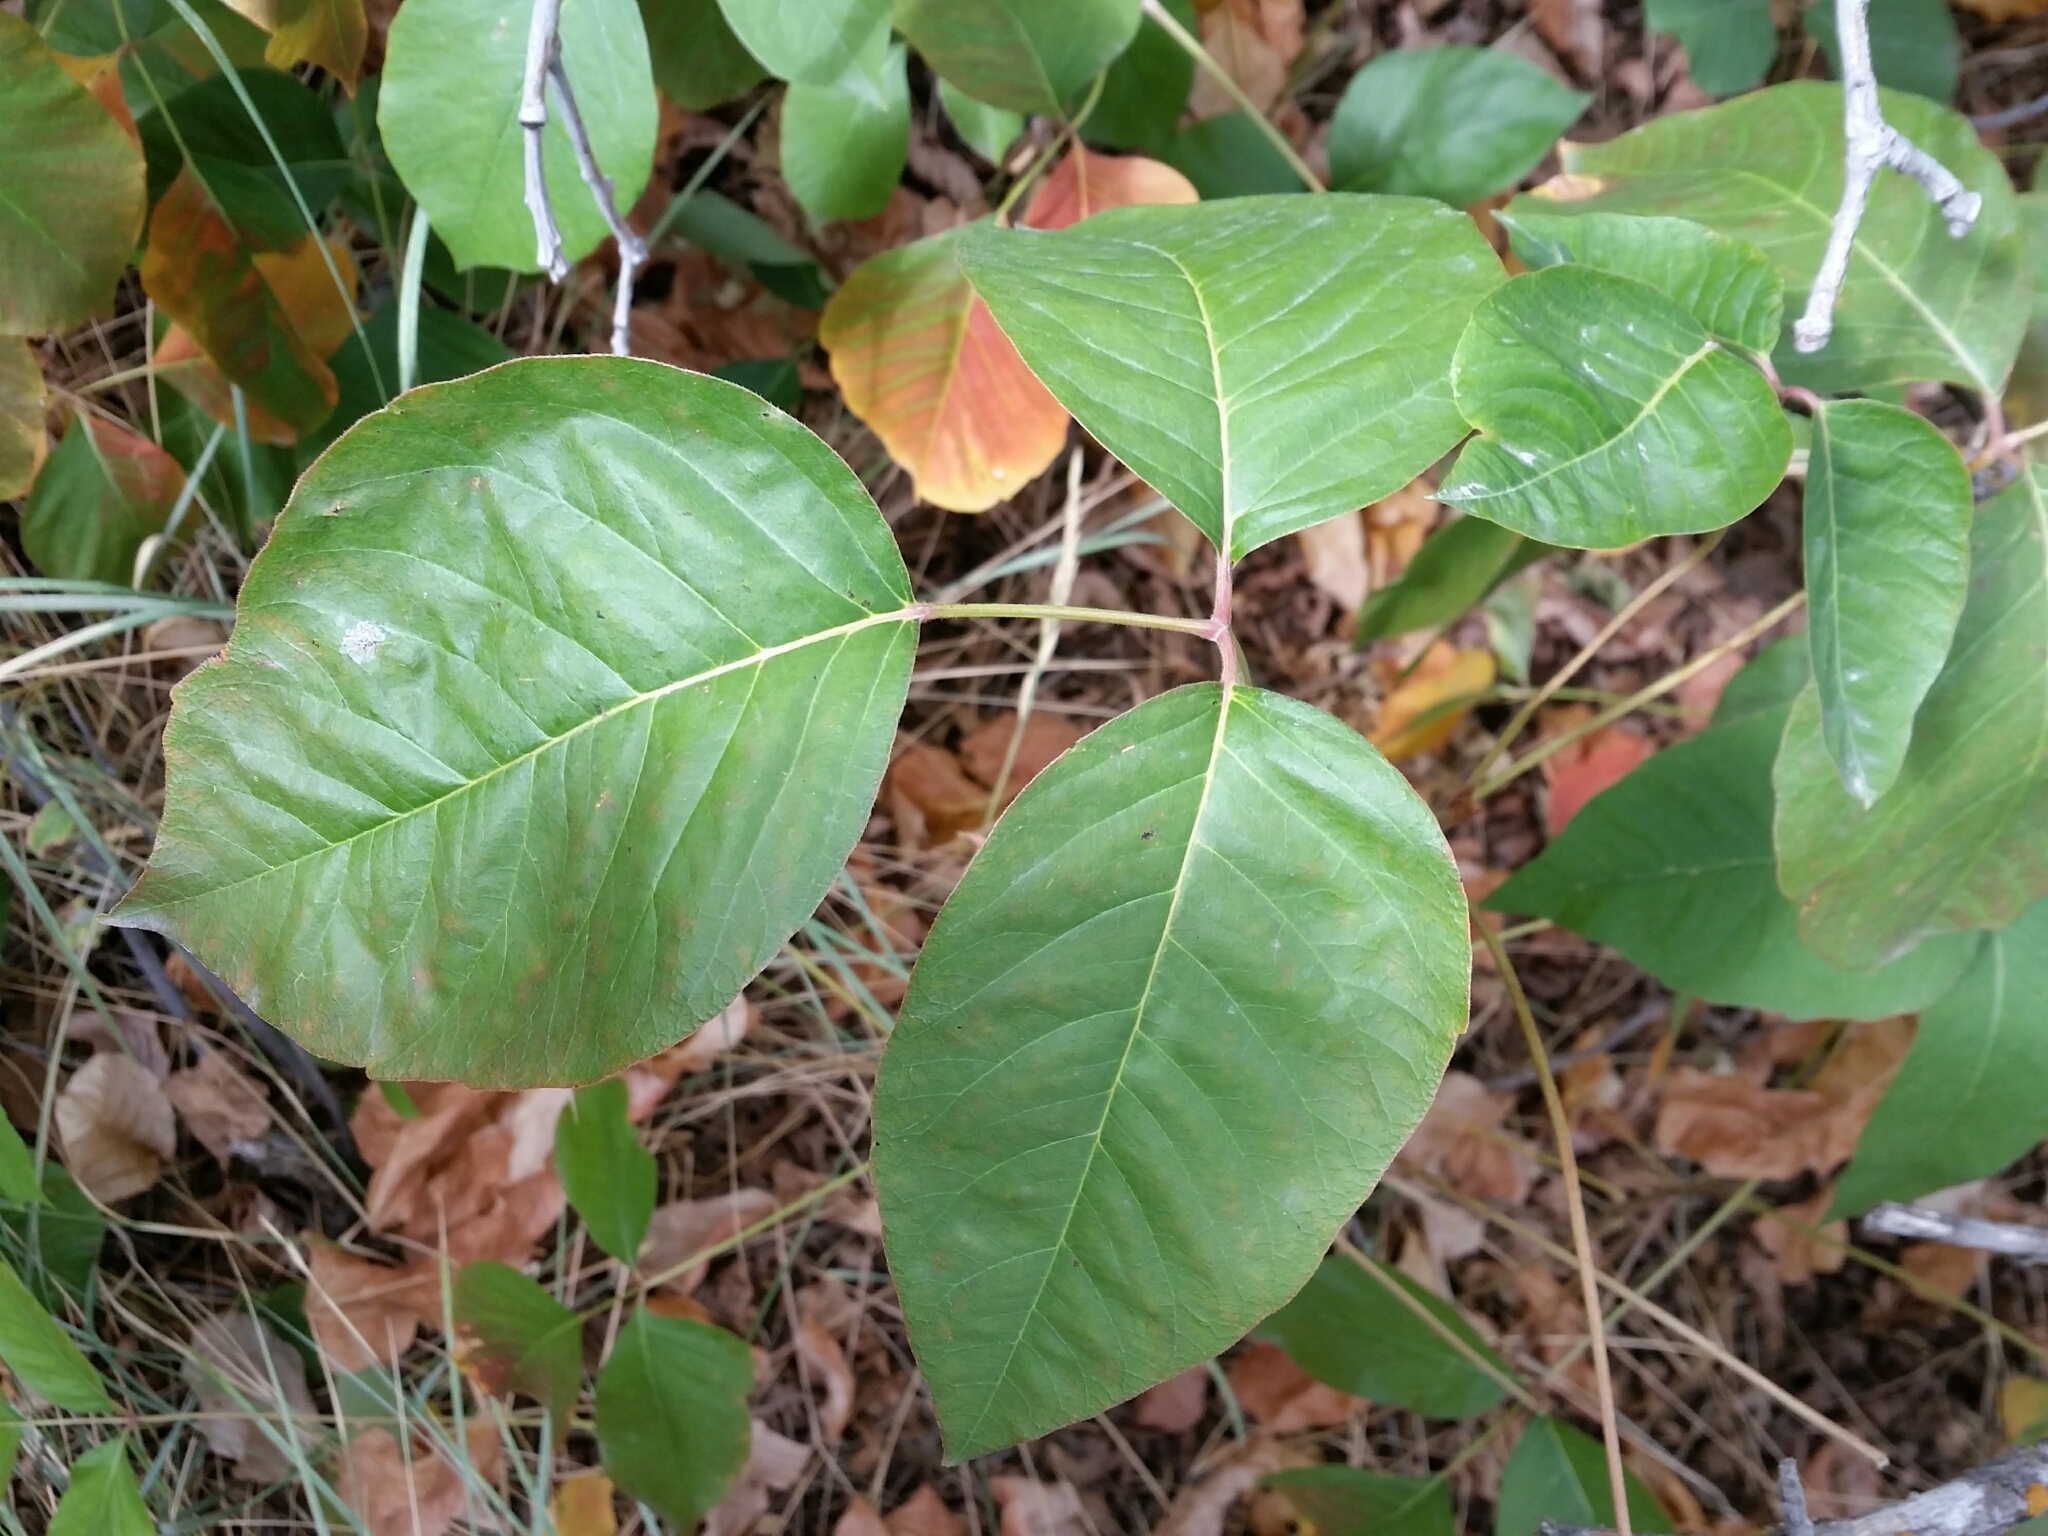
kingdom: Plantae
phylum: Tracheophyta
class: Magnoliopsida
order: Sapindales
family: Anacardiaceae
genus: Toxicodendron
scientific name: Toxicodendron rydbergii
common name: Rydberg's poison-ivy
